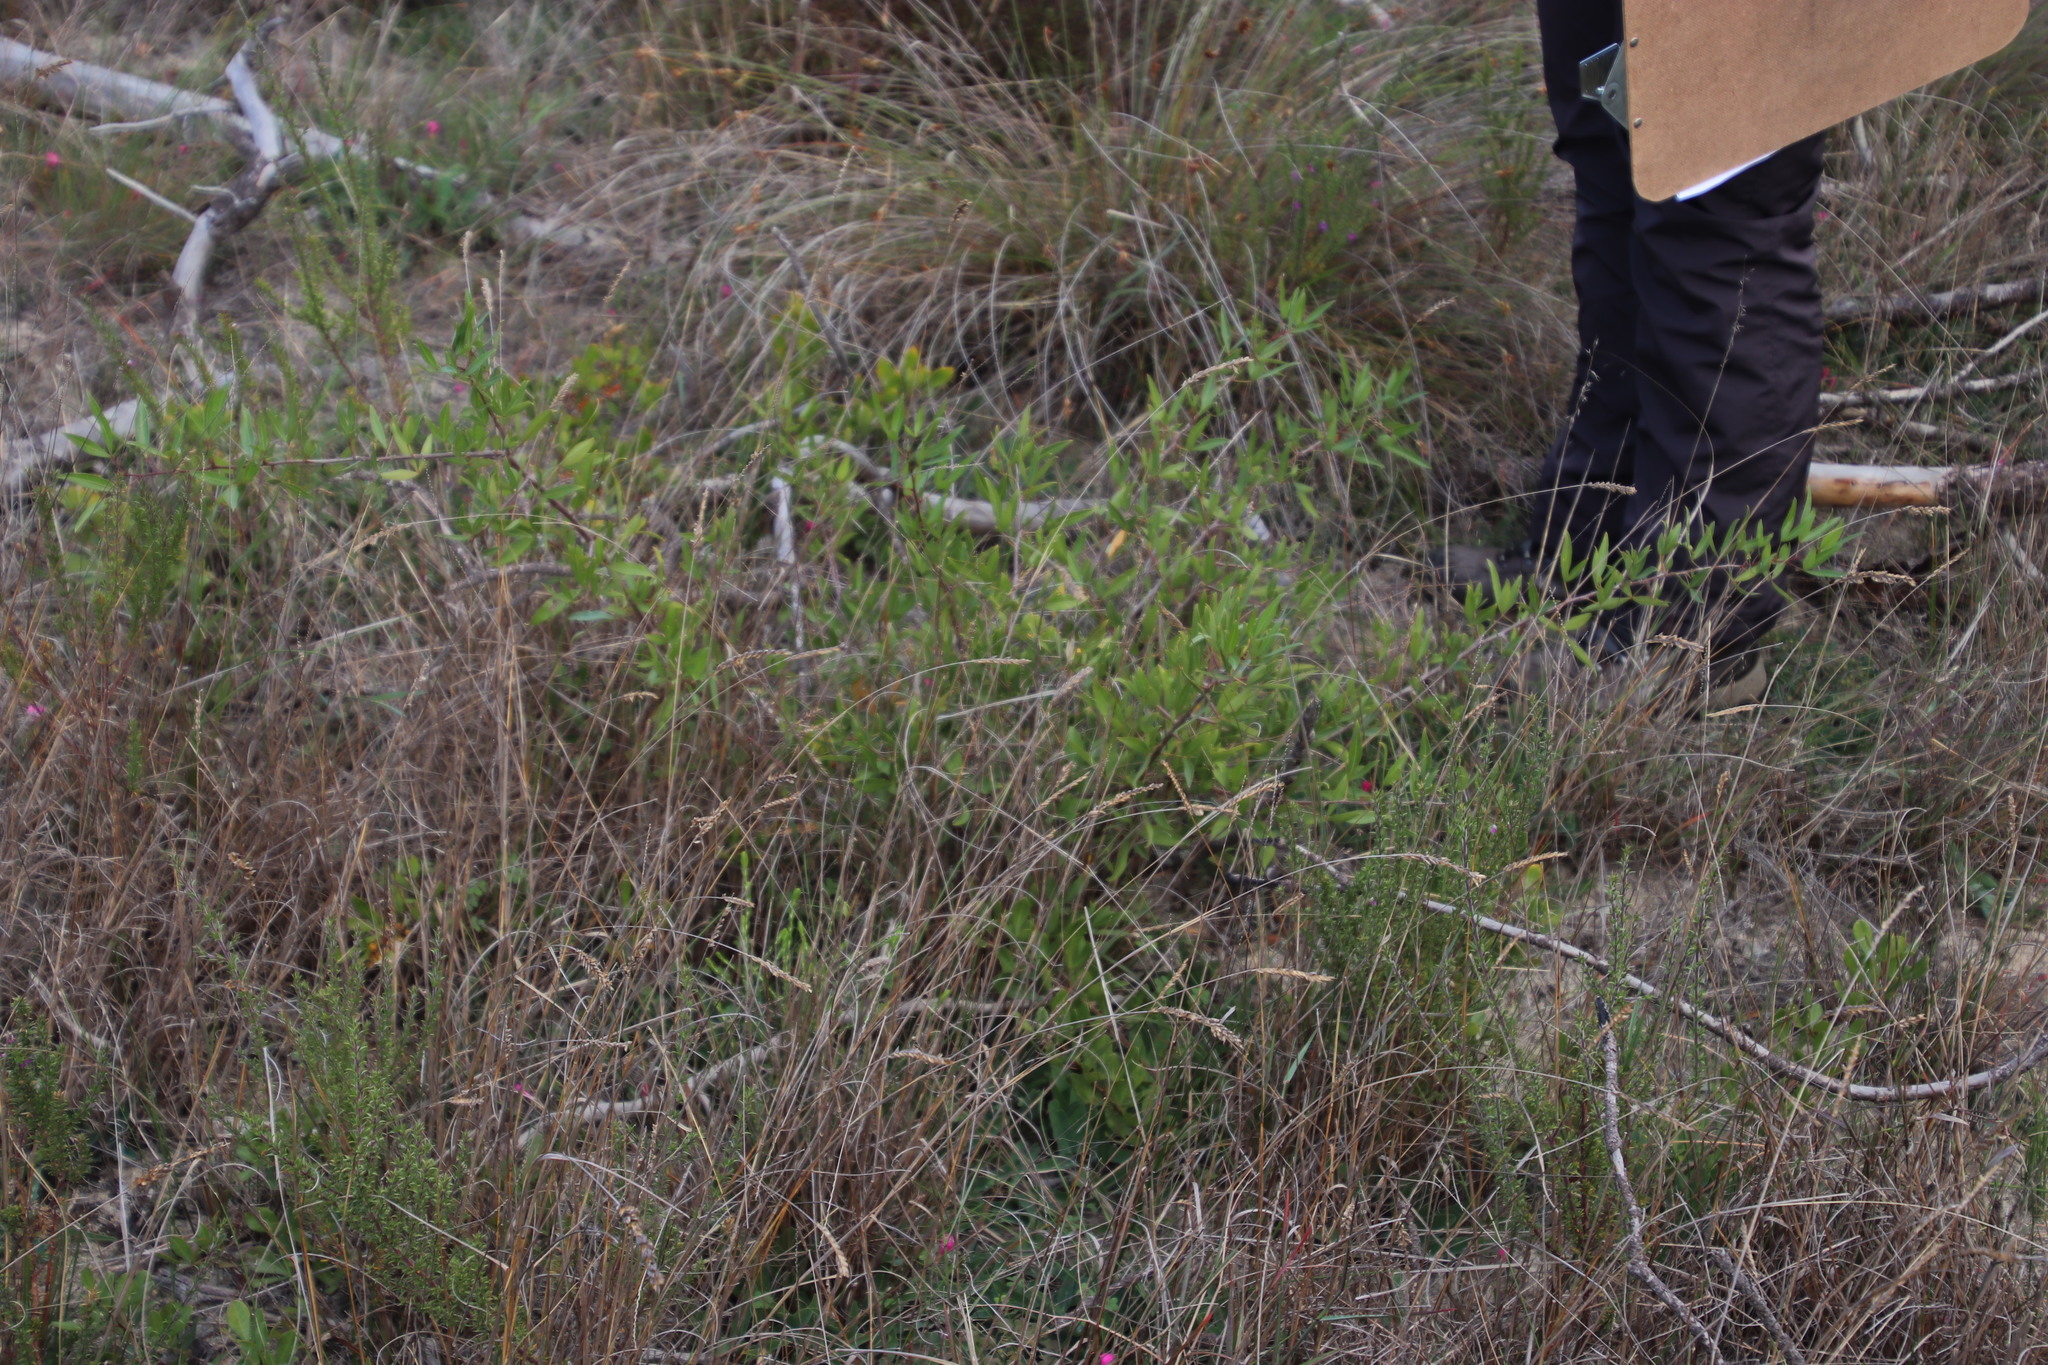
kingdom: Plantae
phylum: Tracheophyta
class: Magnoliopsida
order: Sapindales
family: Anacardiaceae
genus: Searsia
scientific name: Searsia pendulina
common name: White karee
